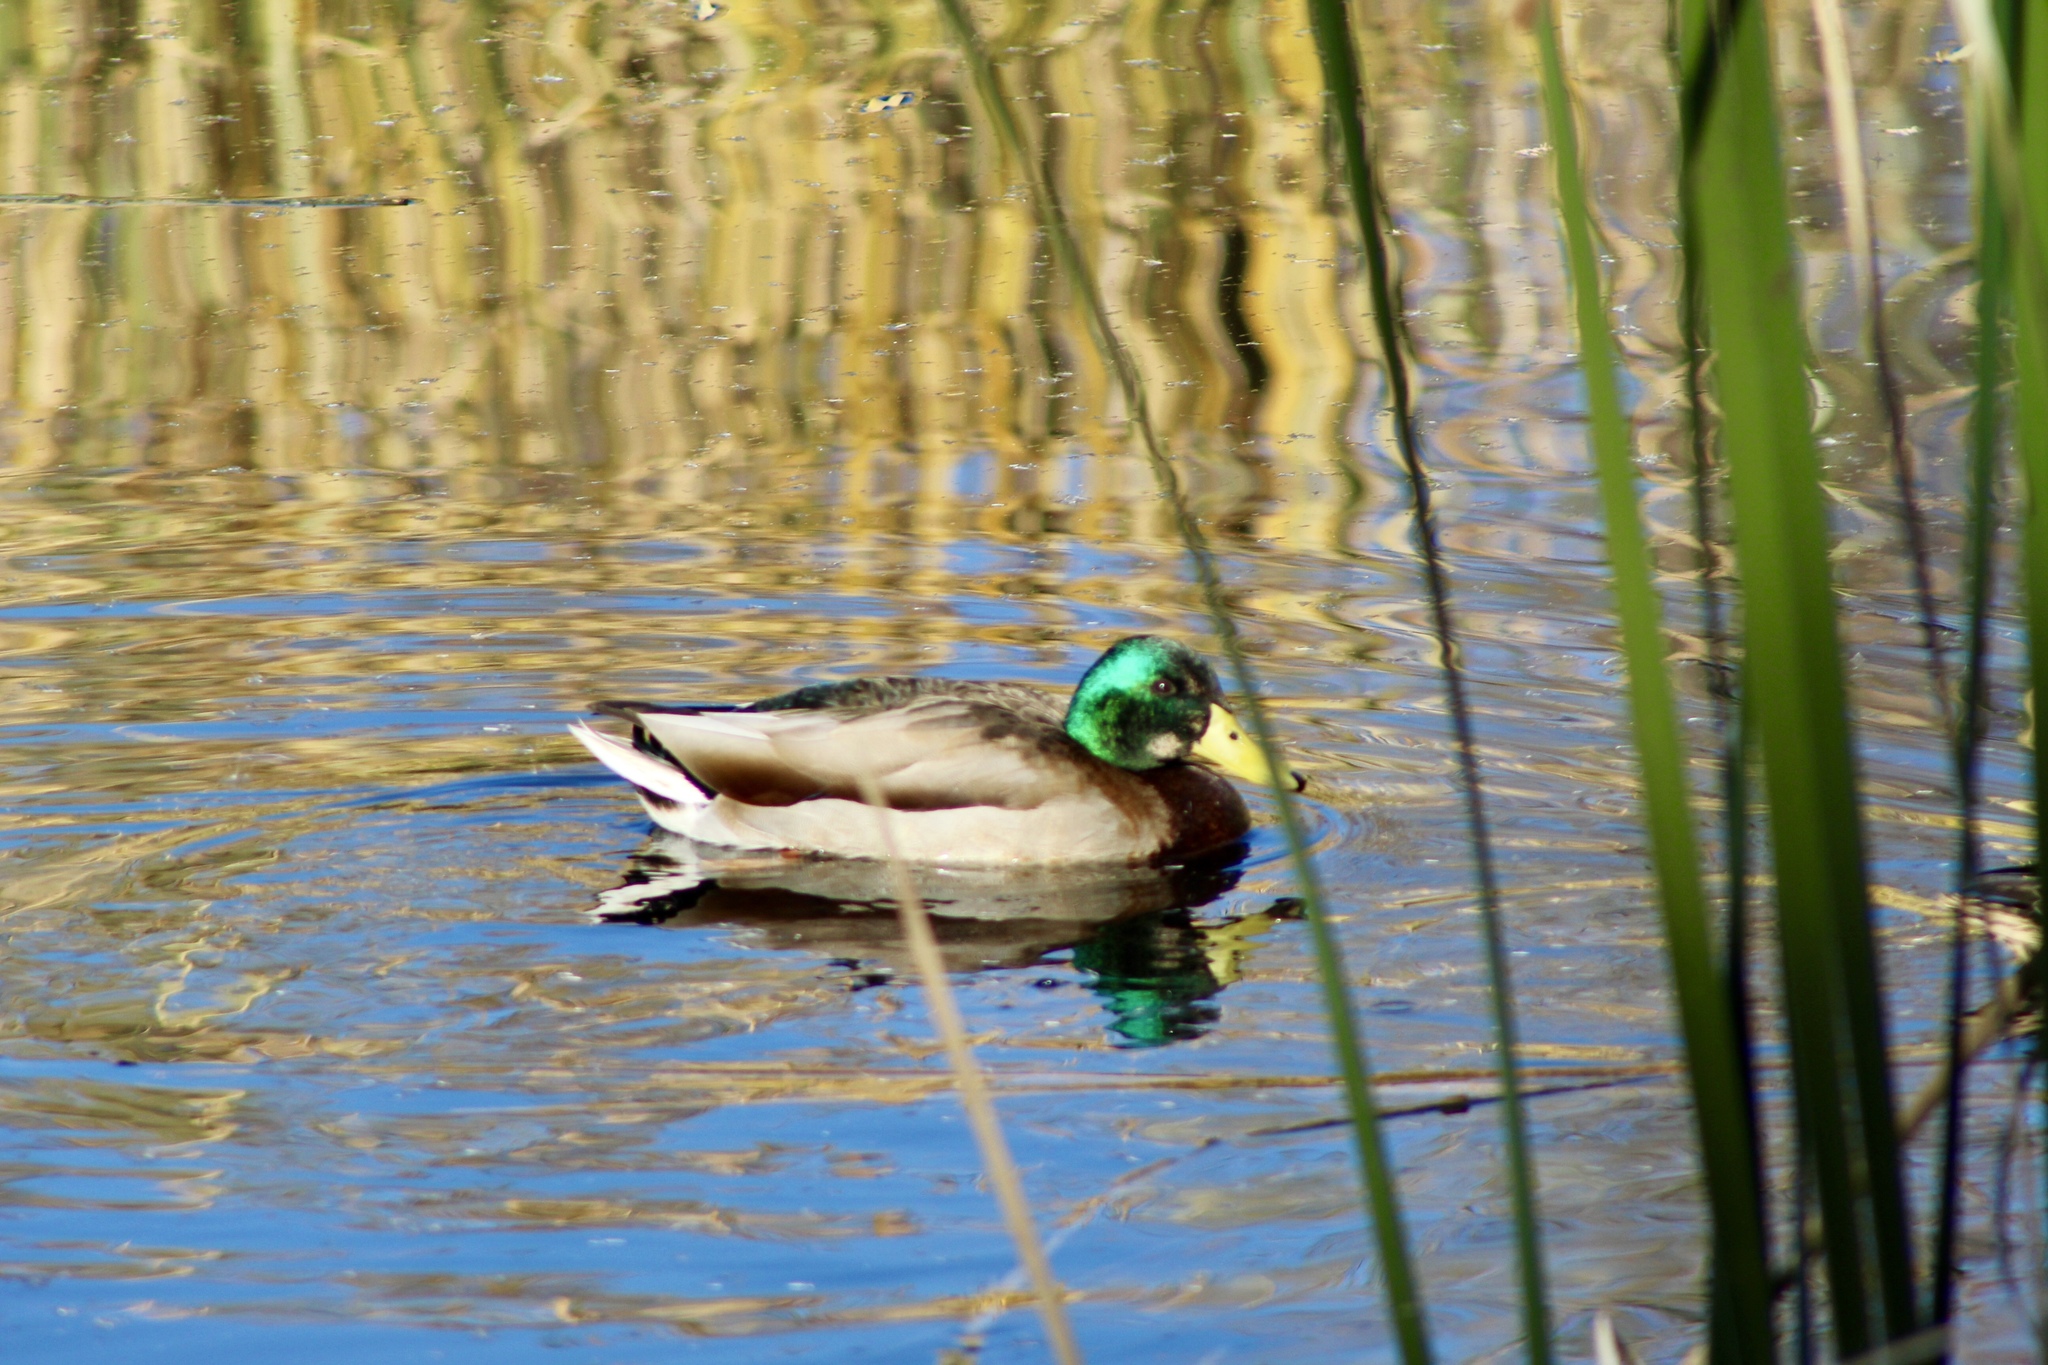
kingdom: Animalia
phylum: Chordata
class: Aves
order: Anseriformes
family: Anatidae
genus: Anas
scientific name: Anas platyrhynchos
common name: Mallard
